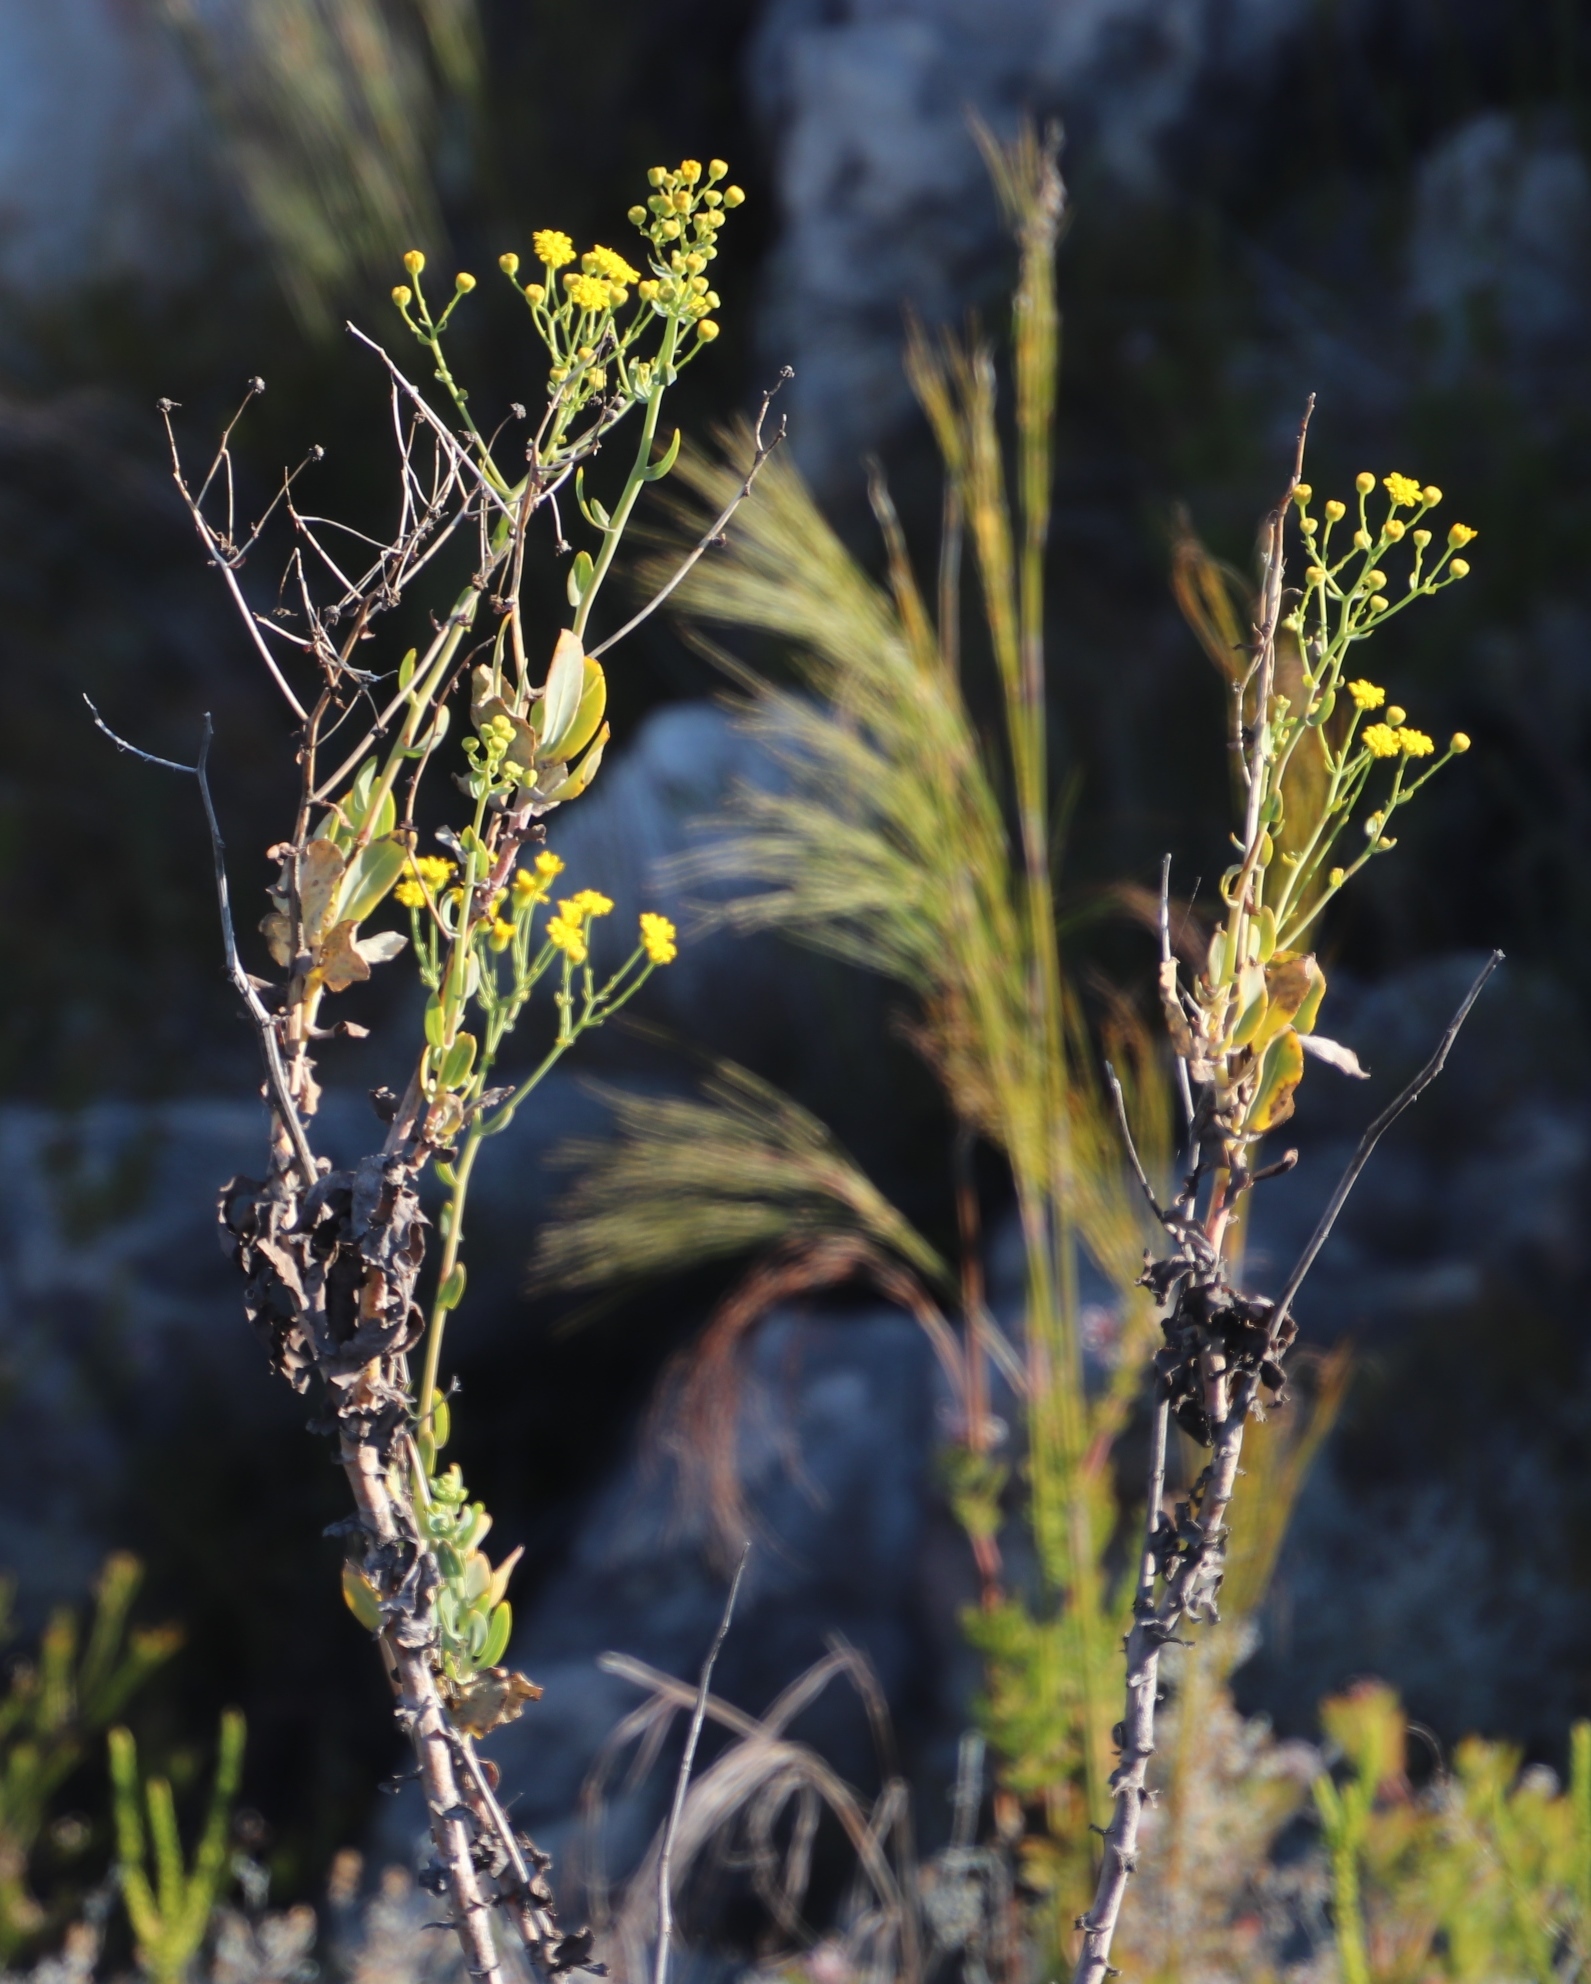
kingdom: Plantae
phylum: Tracheophyta
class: Magnoliopsida
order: Asterales
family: Asteraceae
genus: Othonna
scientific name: Othonna parviflora
